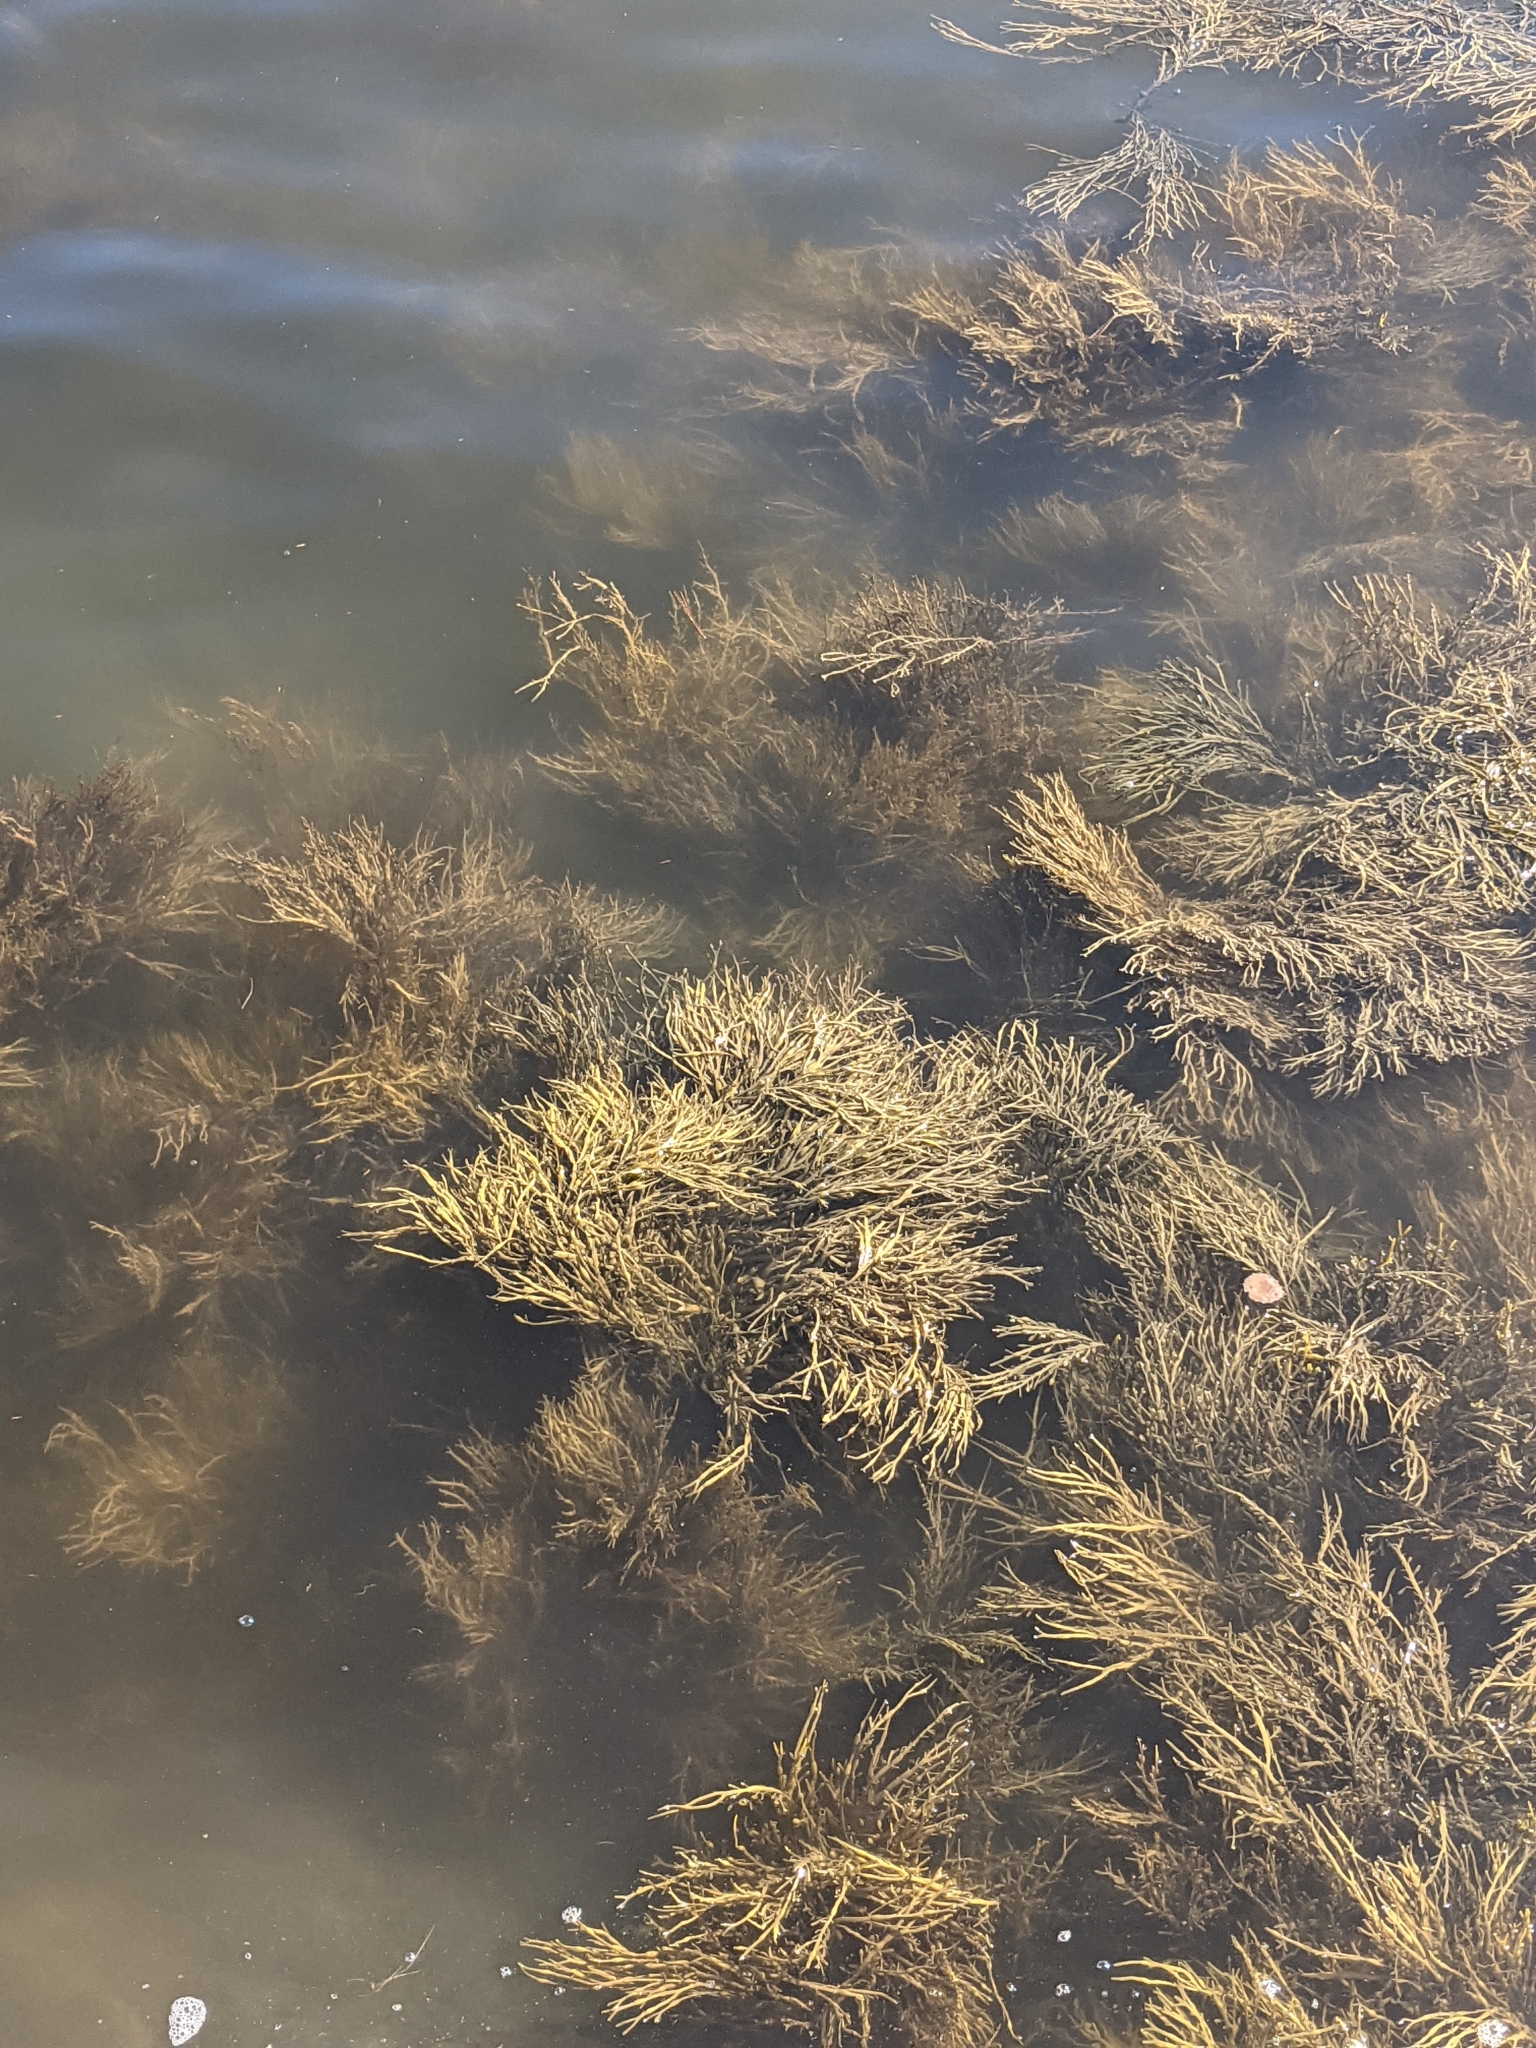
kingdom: Chromista
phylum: Ochrophyta
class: Phaeophyceae
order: Fucales
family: Fucaceae
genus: Ascophyllum
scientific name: Ascophyllum nodosum
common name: Knotted wrack
